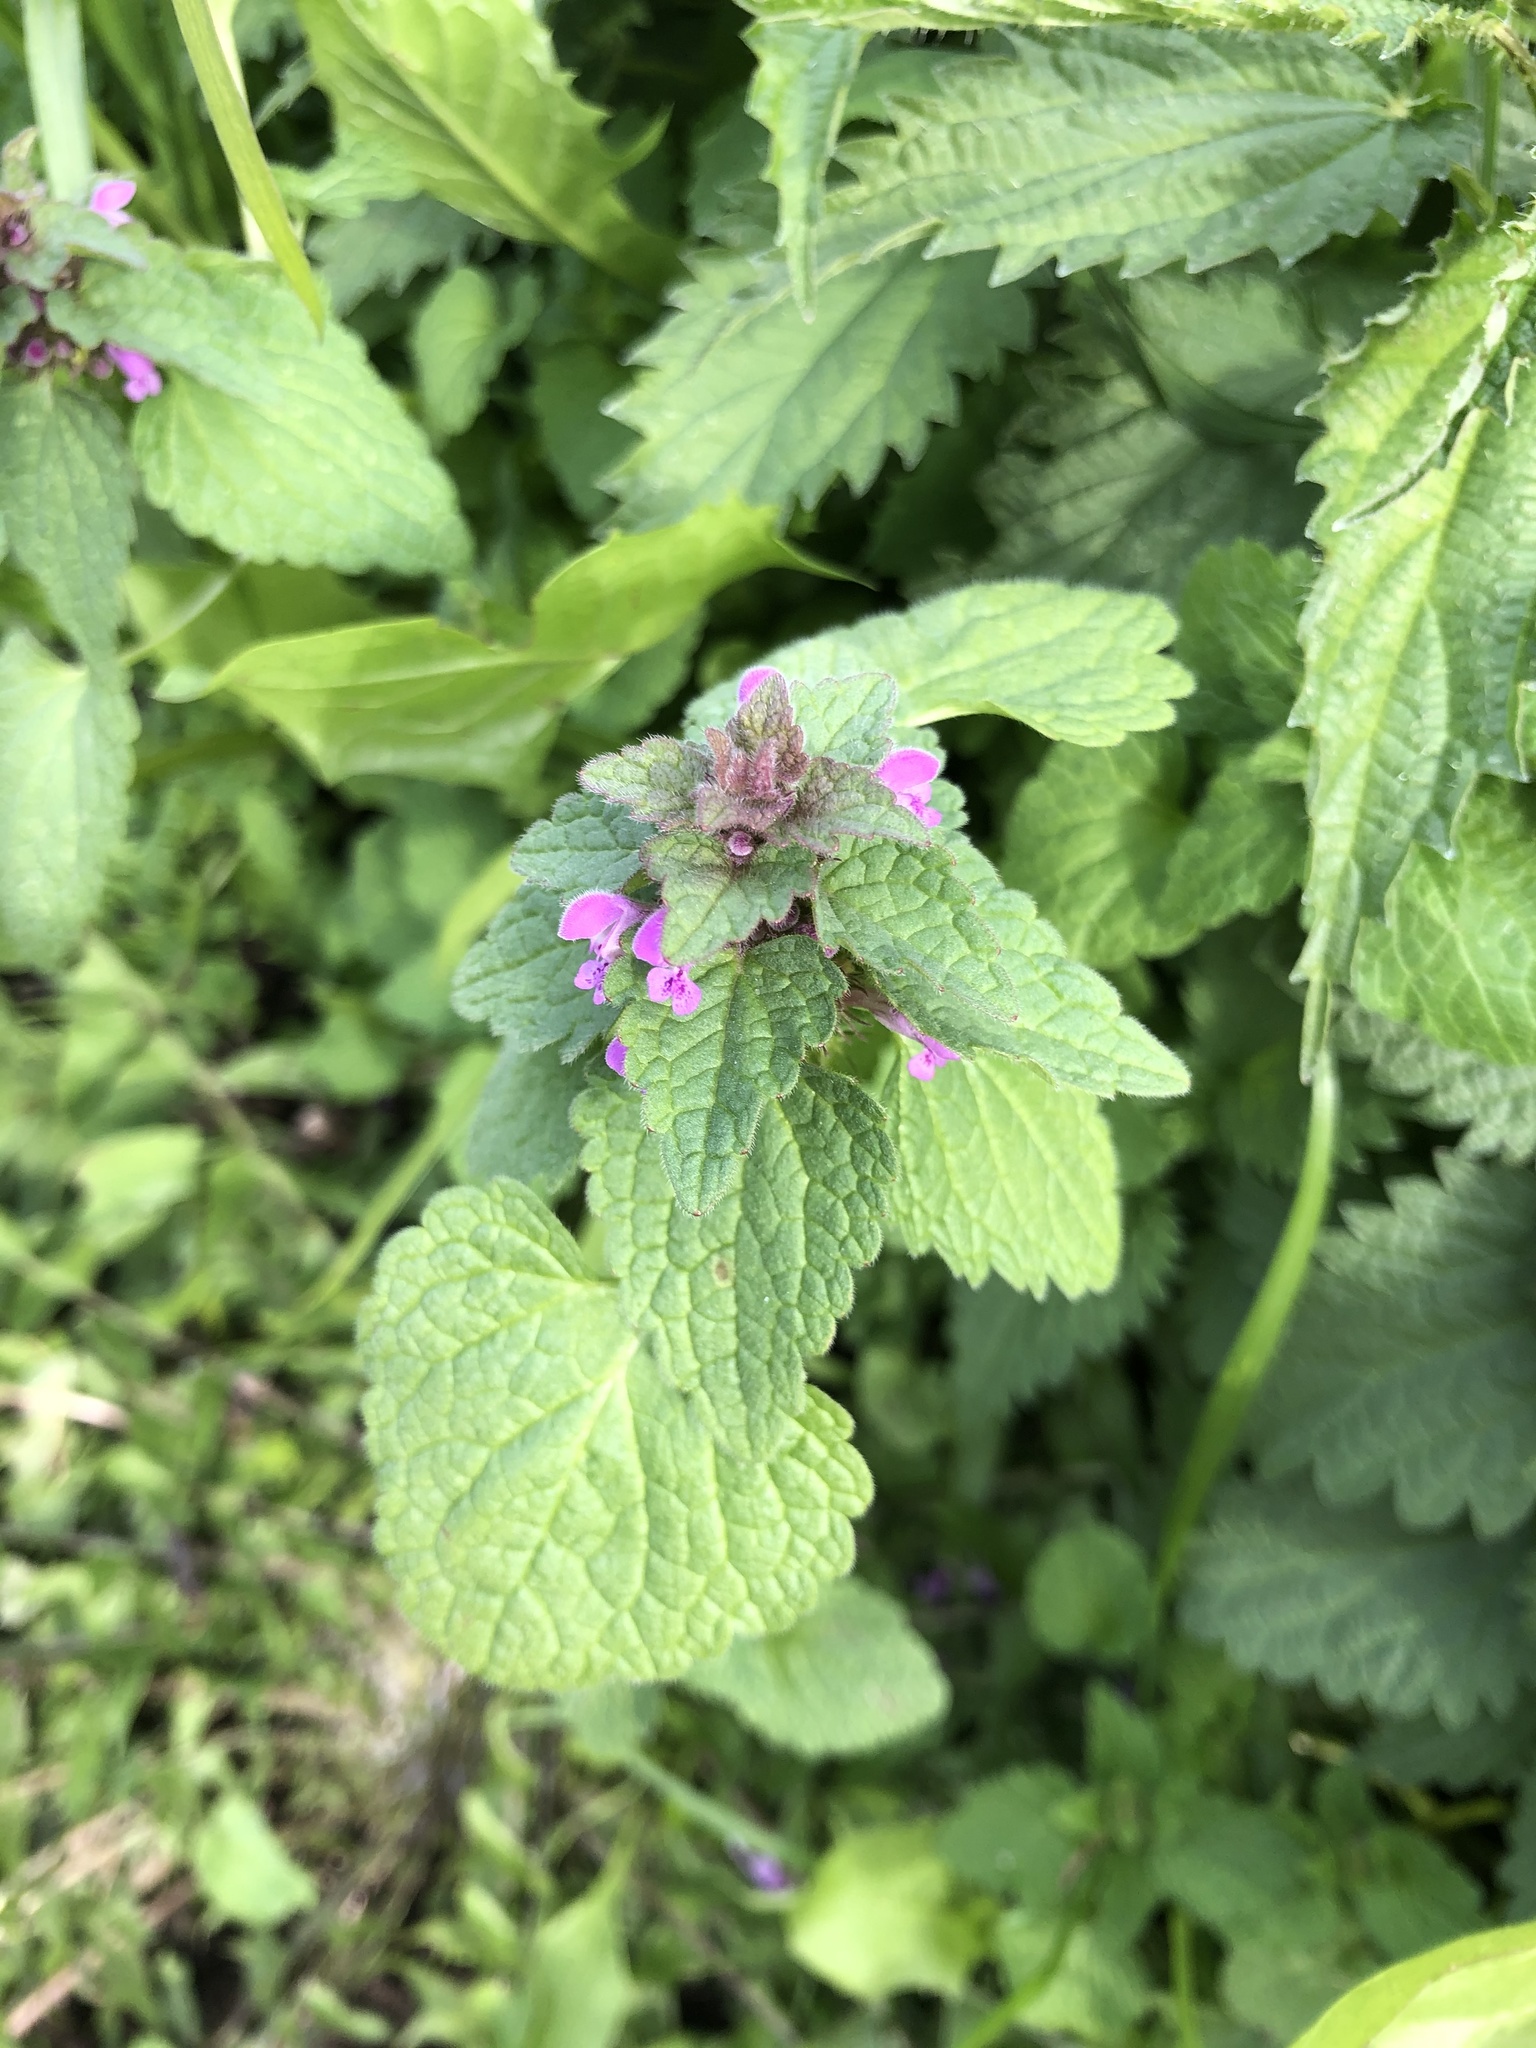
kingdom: Plantae
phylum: Tracheophyta
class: Magnoliopsida
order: Lamiales
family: Lamiaceae
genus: Lamium
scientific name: Lamium purpureum
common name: Red dead-nettle
